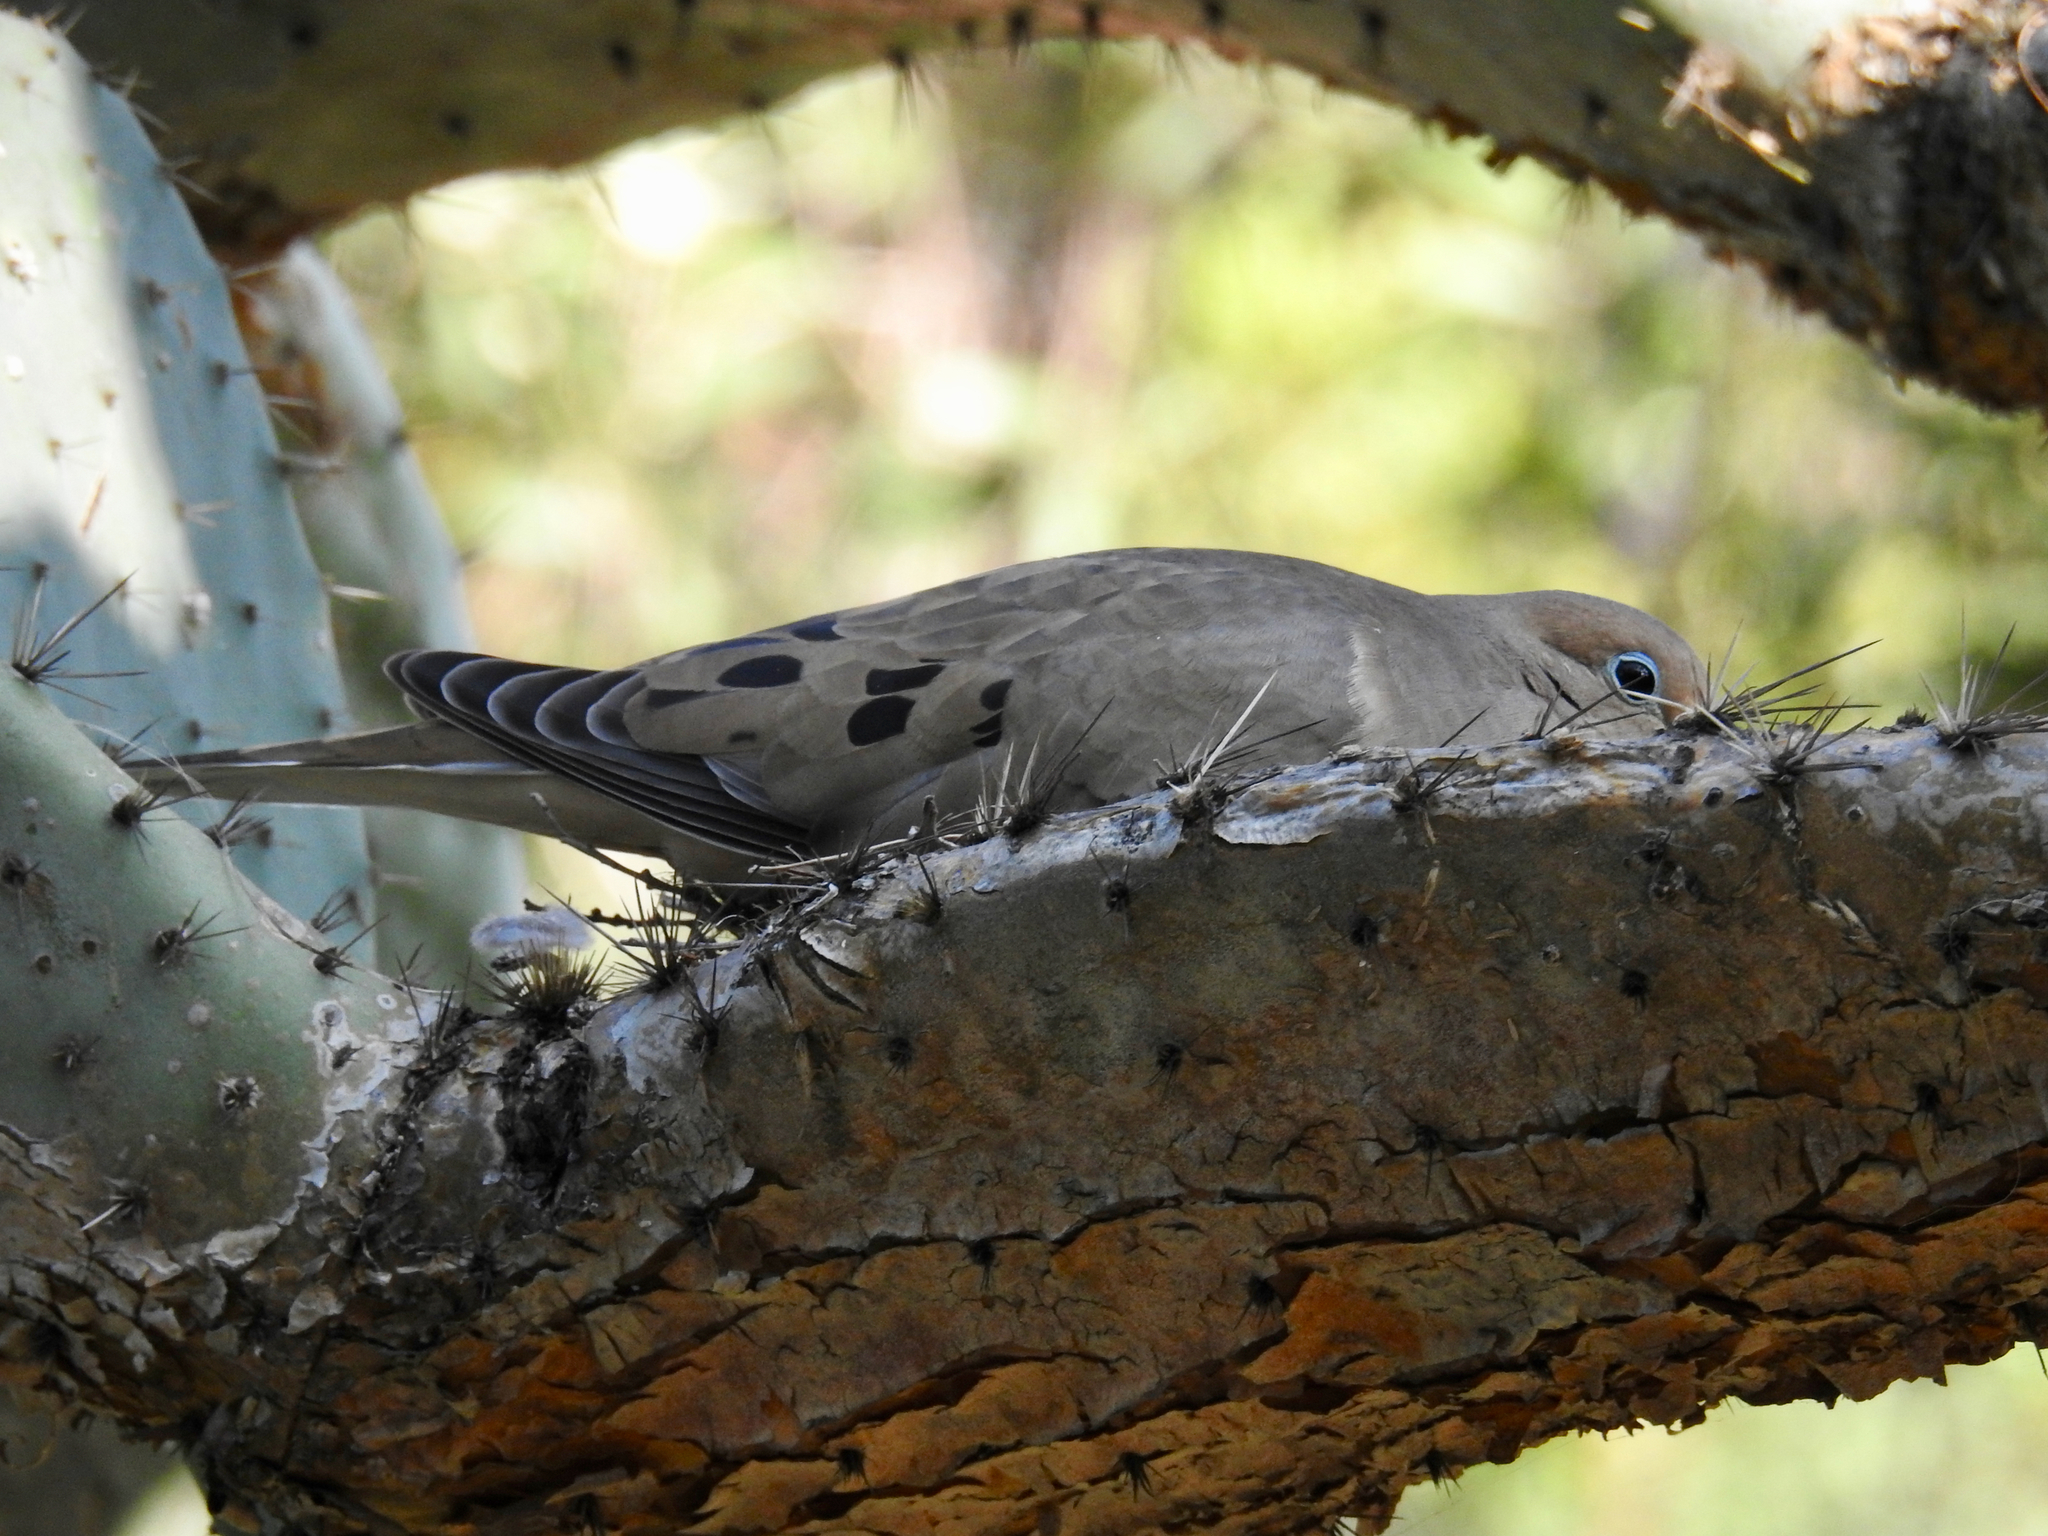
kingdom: Animalia
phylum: Chordata
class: Aves
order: Columbiformes
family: Columbidae
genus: Zenaida
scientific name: Zenaida macroura
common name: Mourning dove
